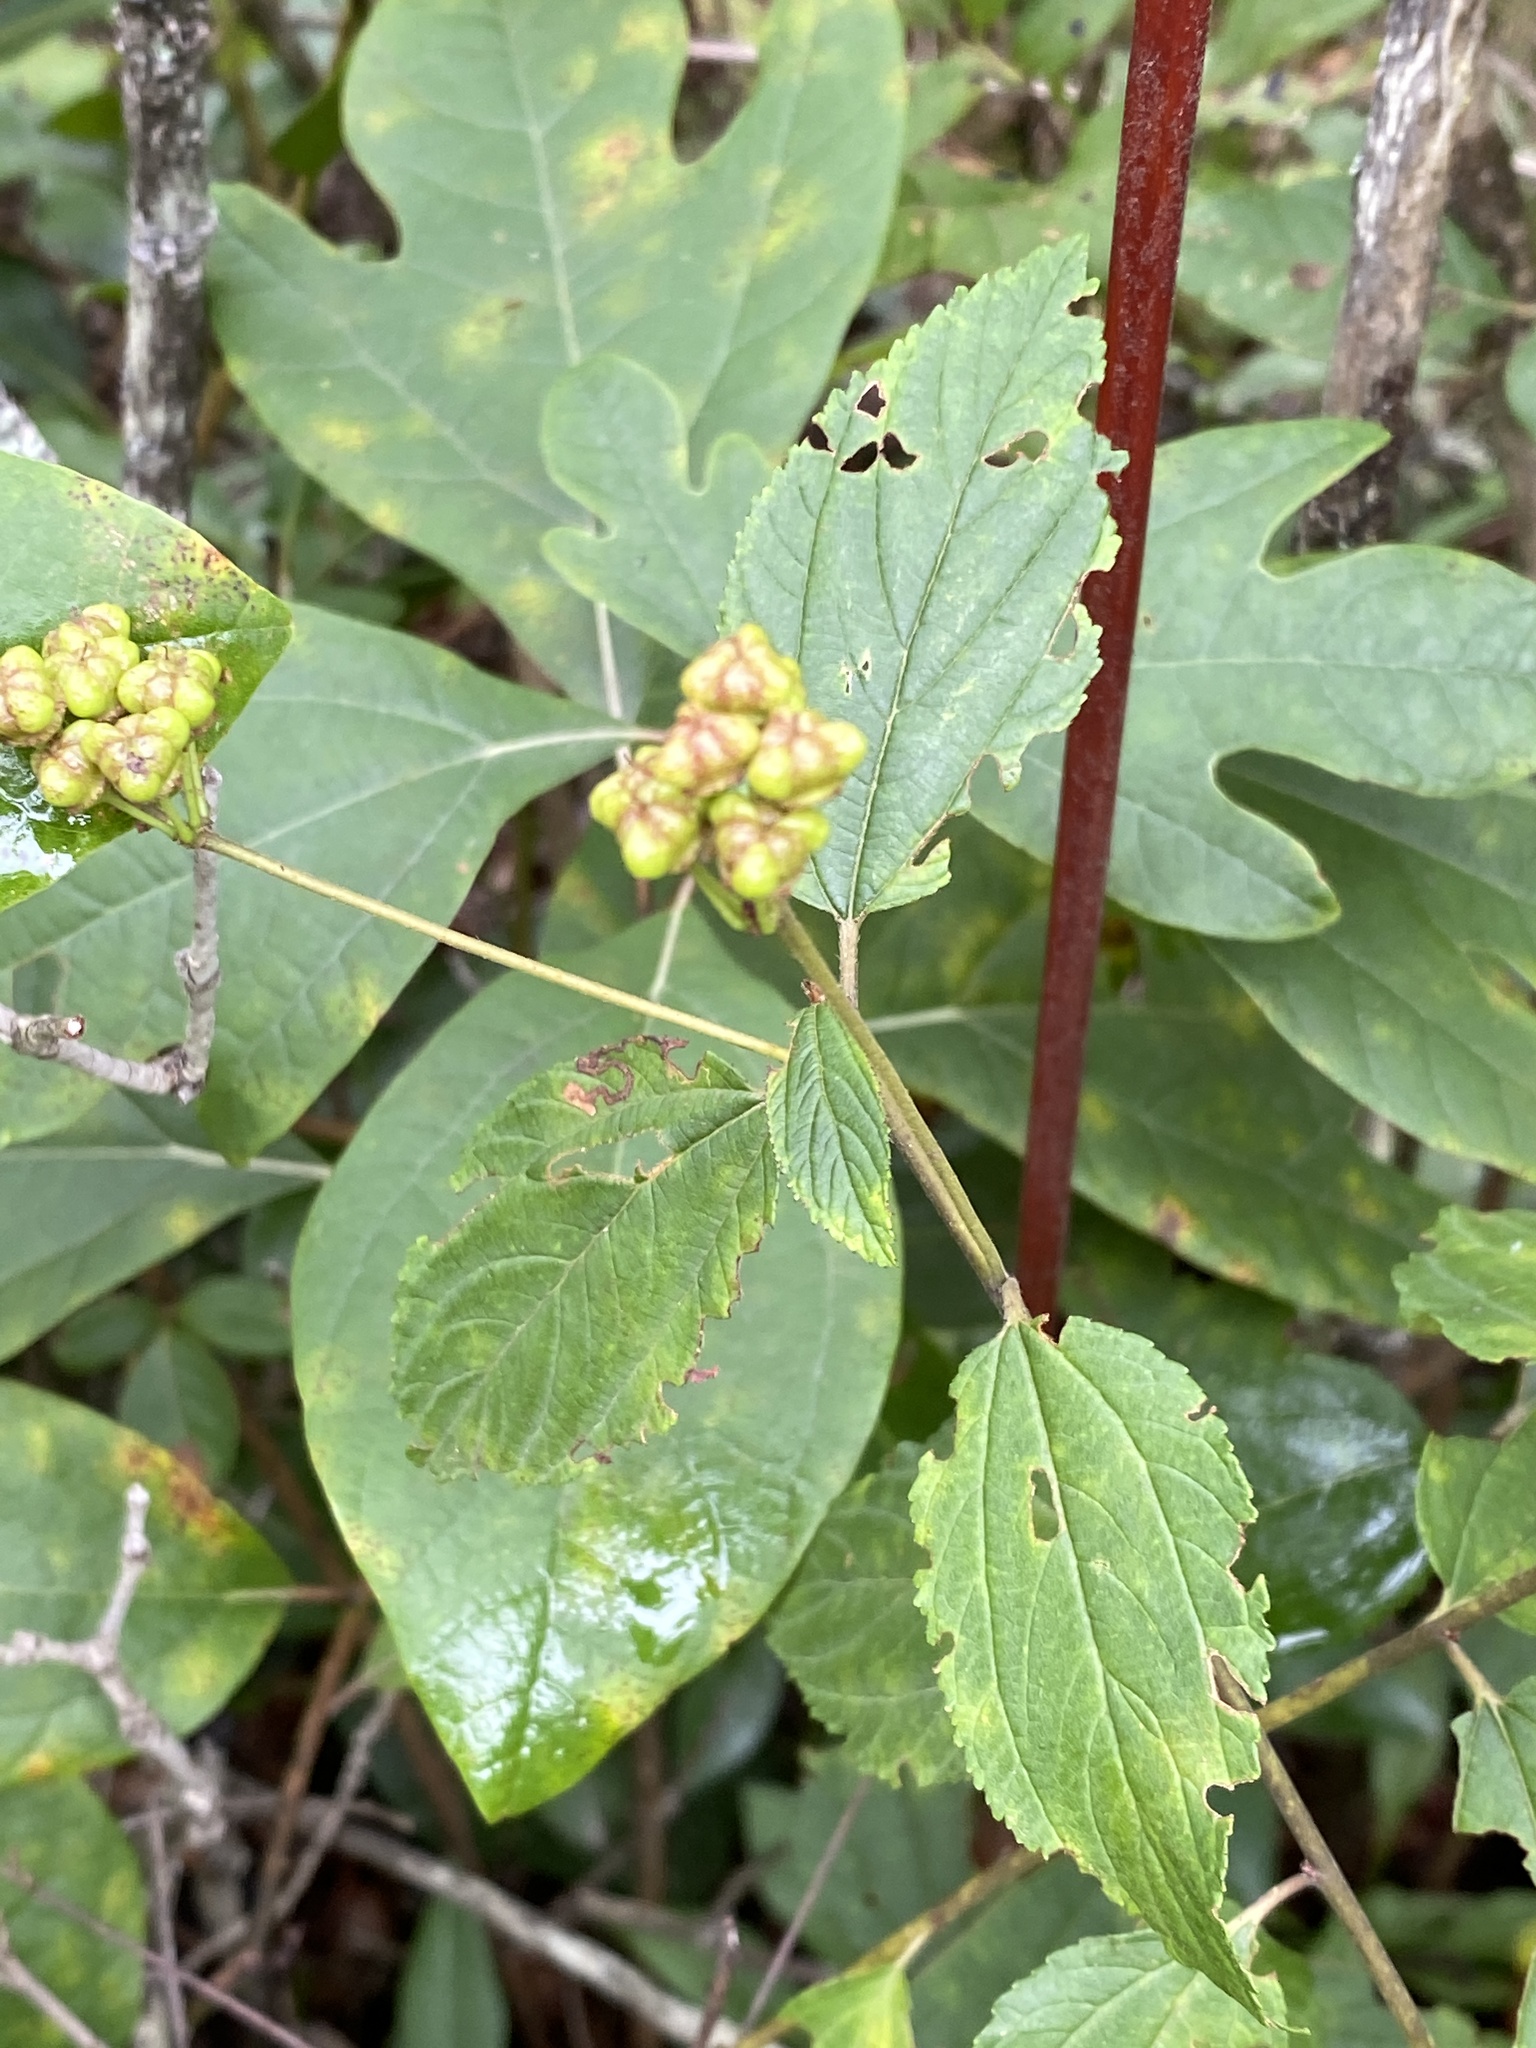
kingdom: Plantae
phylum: Tracheophyta
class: Magnoliopsida
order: Rosales
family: Rhamnaceae
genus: Ceanothus
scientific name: Ceanothus americanus
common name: Redroot
